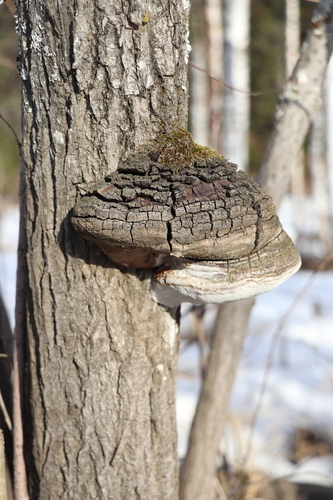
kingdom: Fungi
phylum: Basidiomycota
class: Agaricomycetes
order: Hymenochaetales
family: Hymenochaetaceae
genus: Phellinus
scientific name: Phellinus igniarius
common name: Willow bracket
